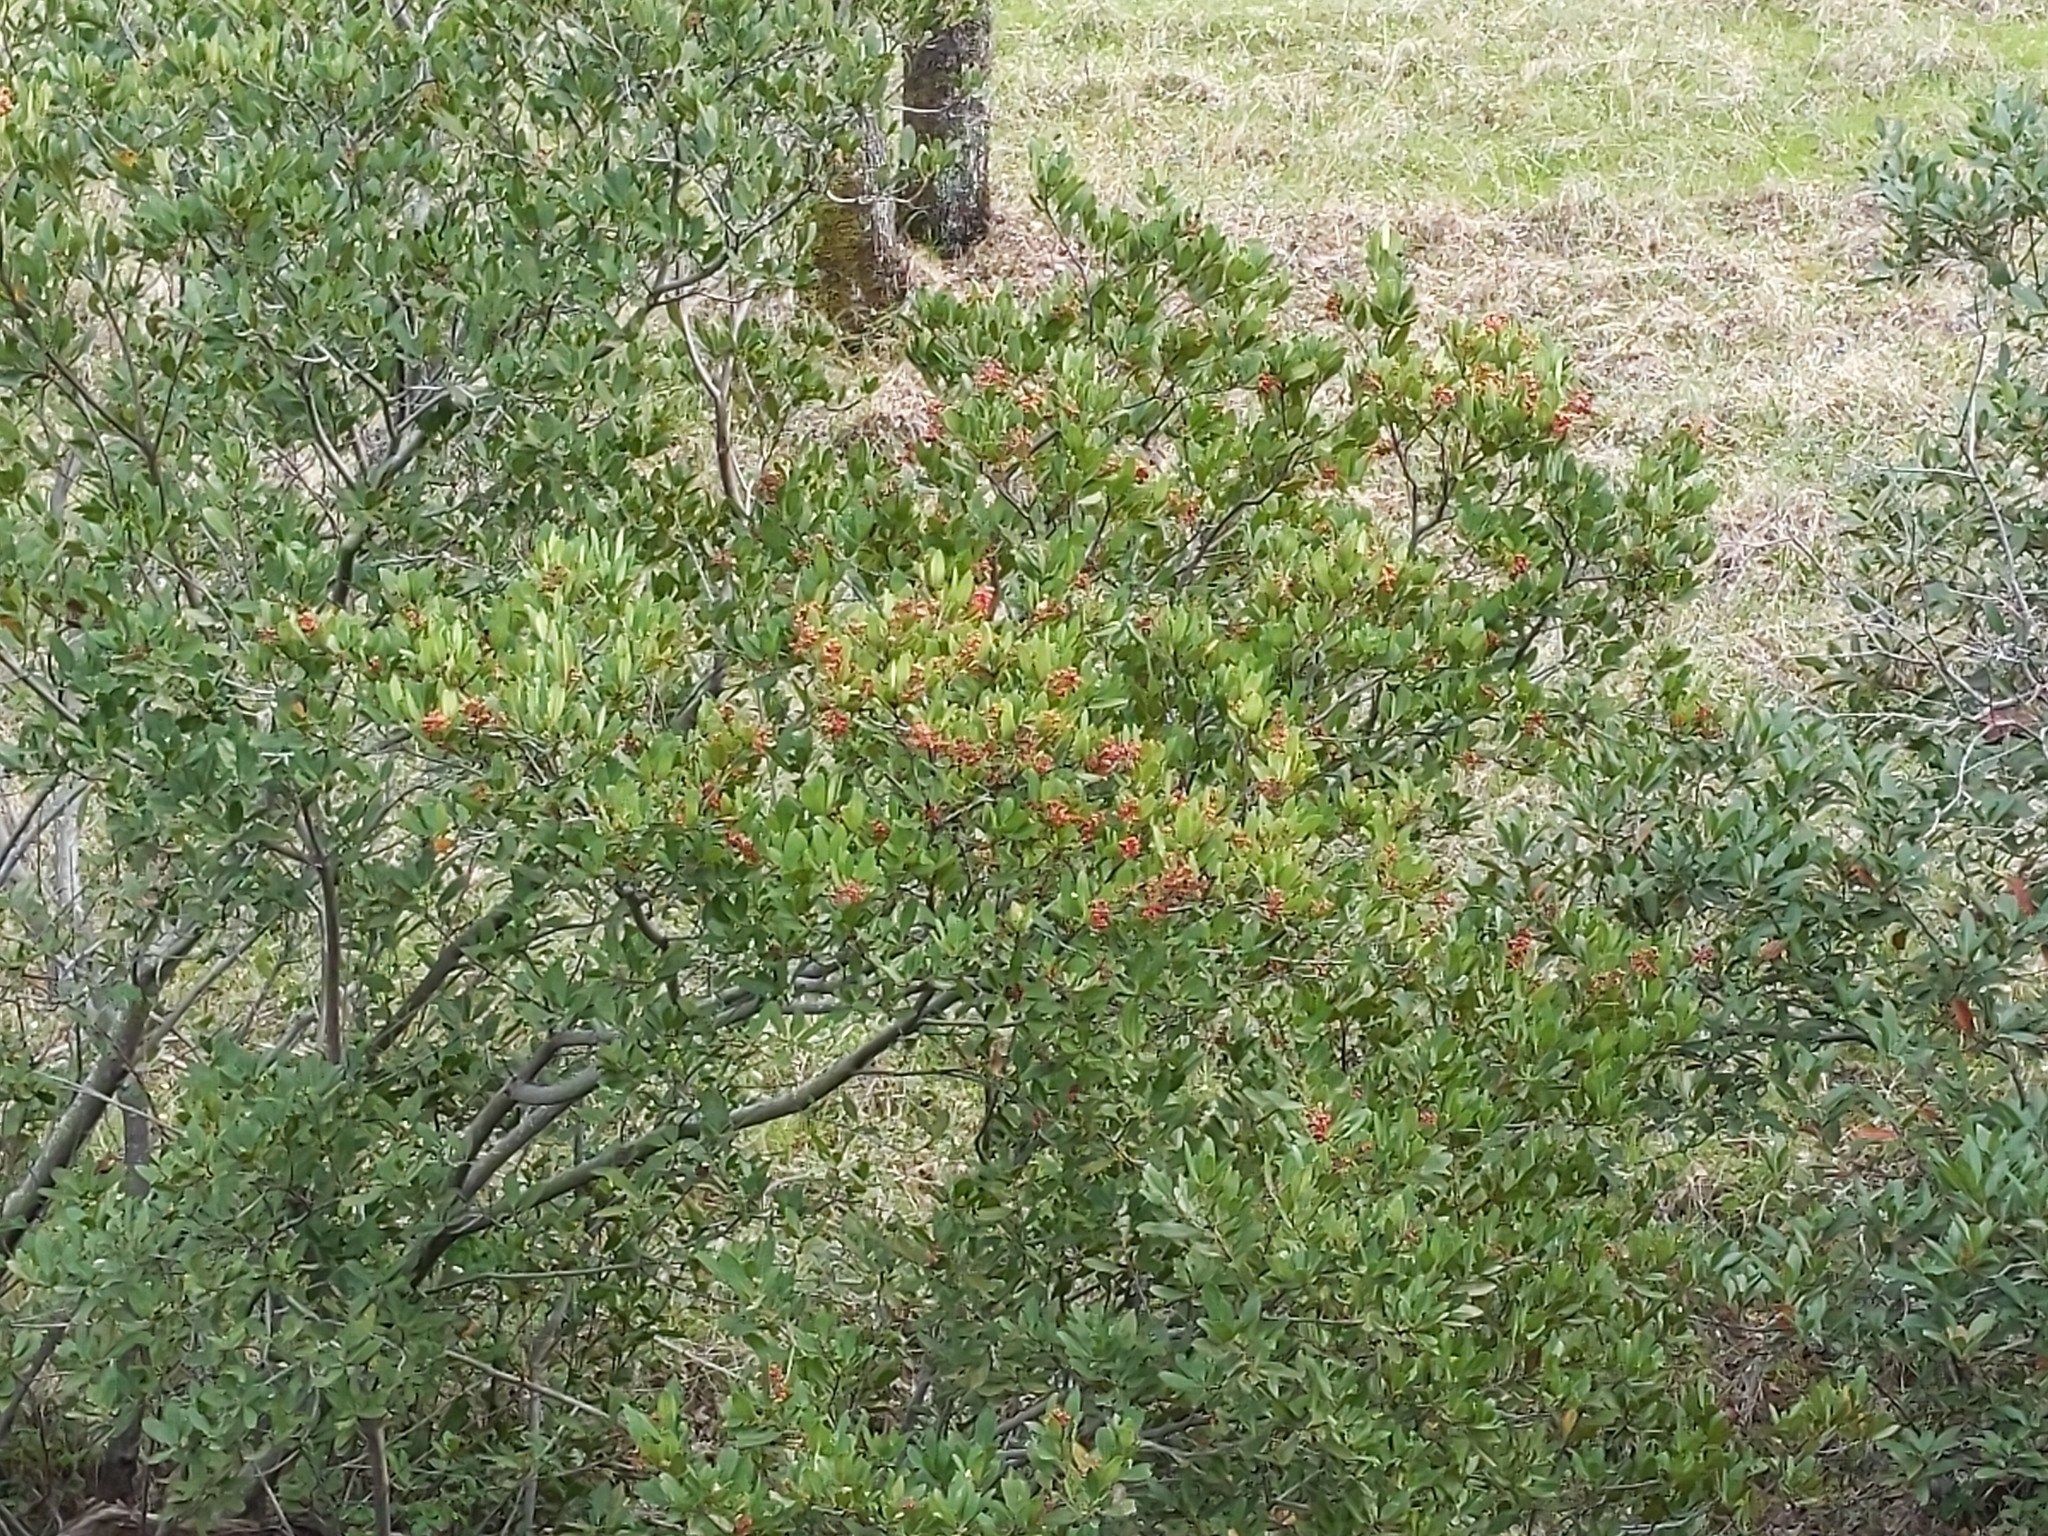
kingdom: Plantae
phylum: Tracheophyta
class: Magnoliopsida
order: Rosales
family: Rosaceae
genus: Heteromeles
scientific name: Heteromeles arbutifolia
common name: California-holly
